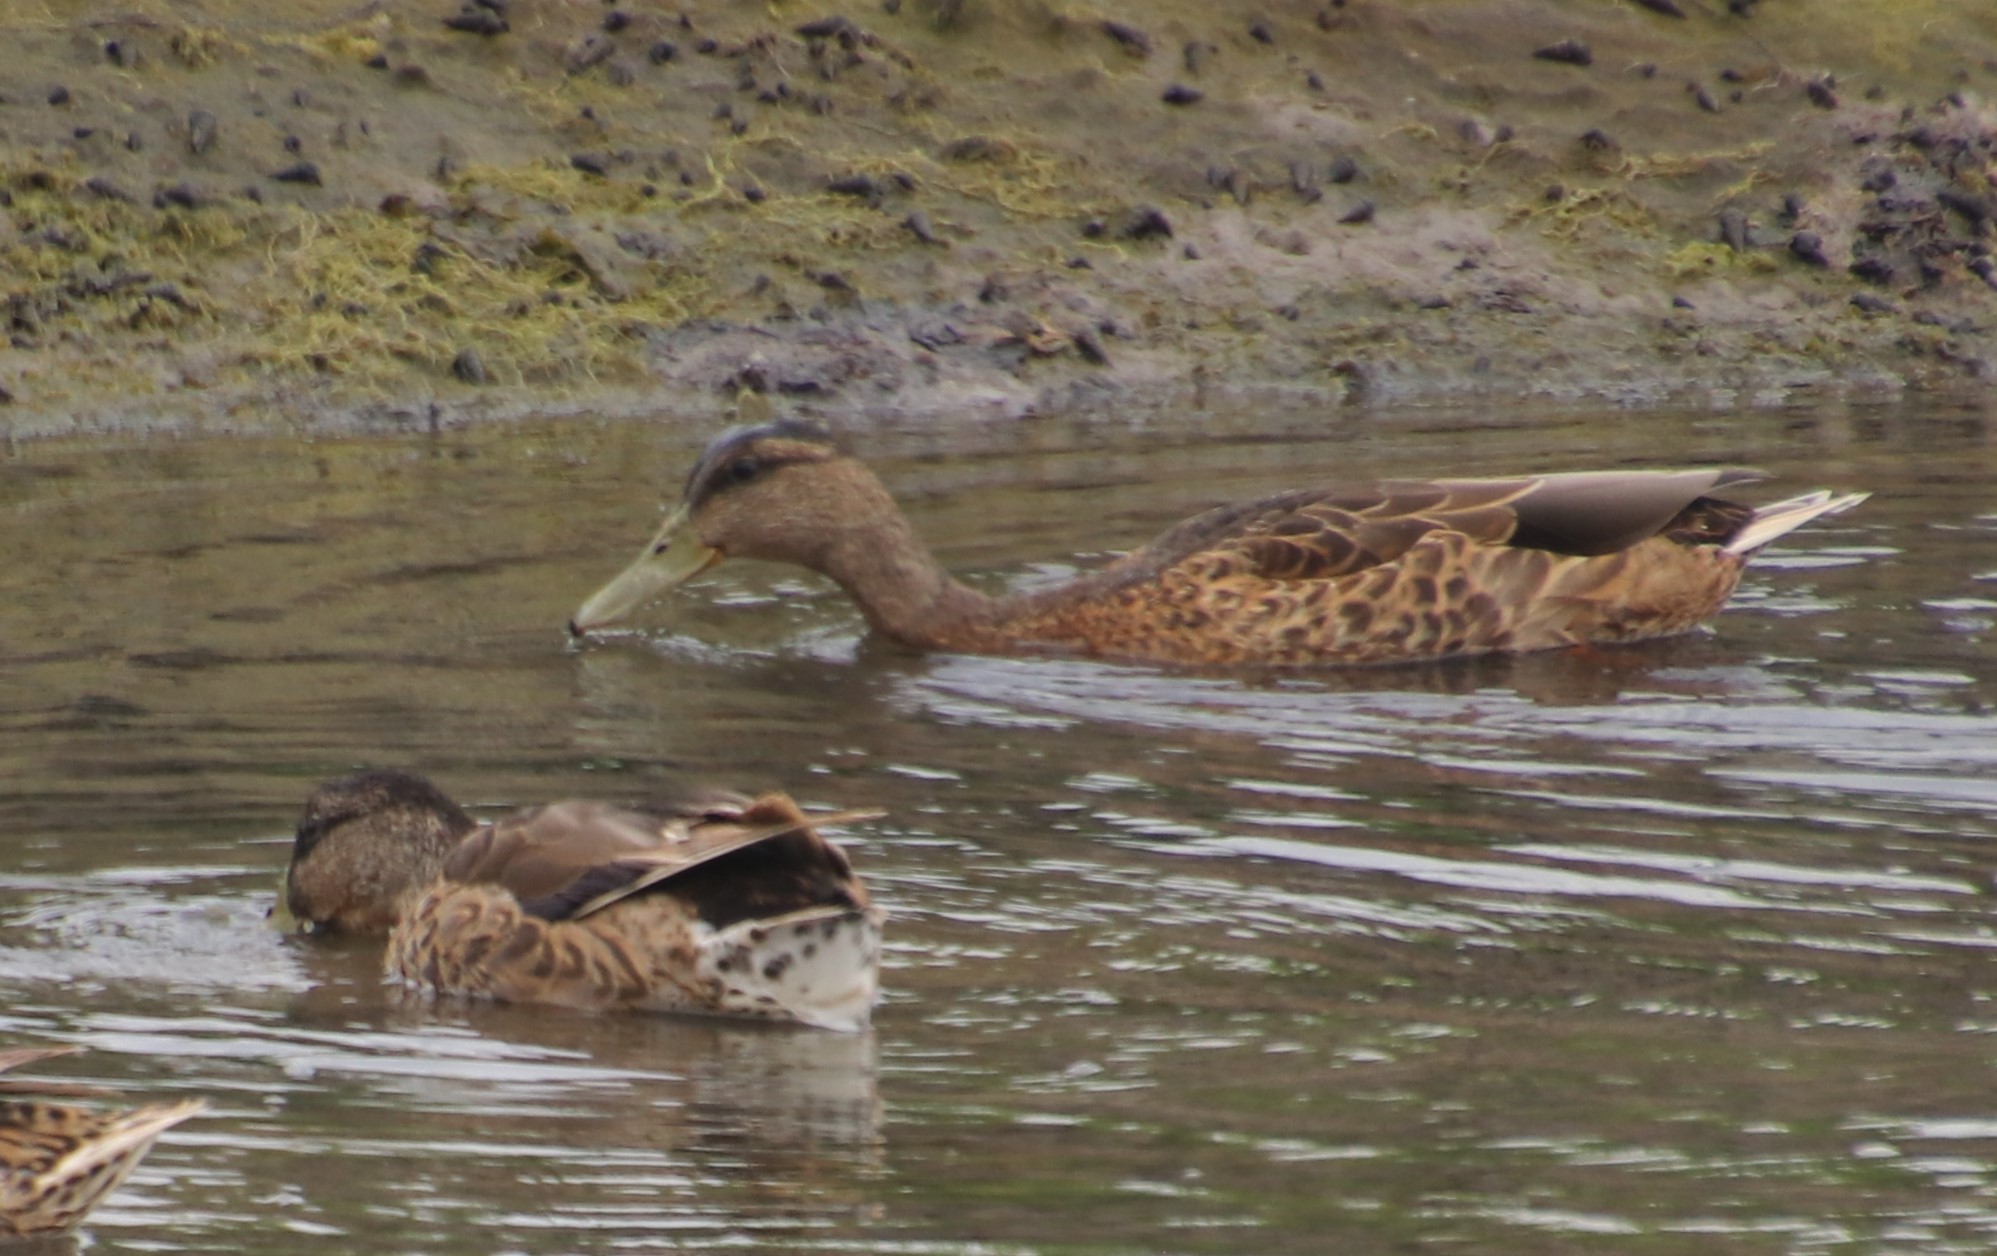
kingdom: Animalia
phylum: Chordata
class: Aves
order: Anseriformes
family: Anatidae
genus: Anas
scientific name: Anas platyrhynchos
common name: Mallard
